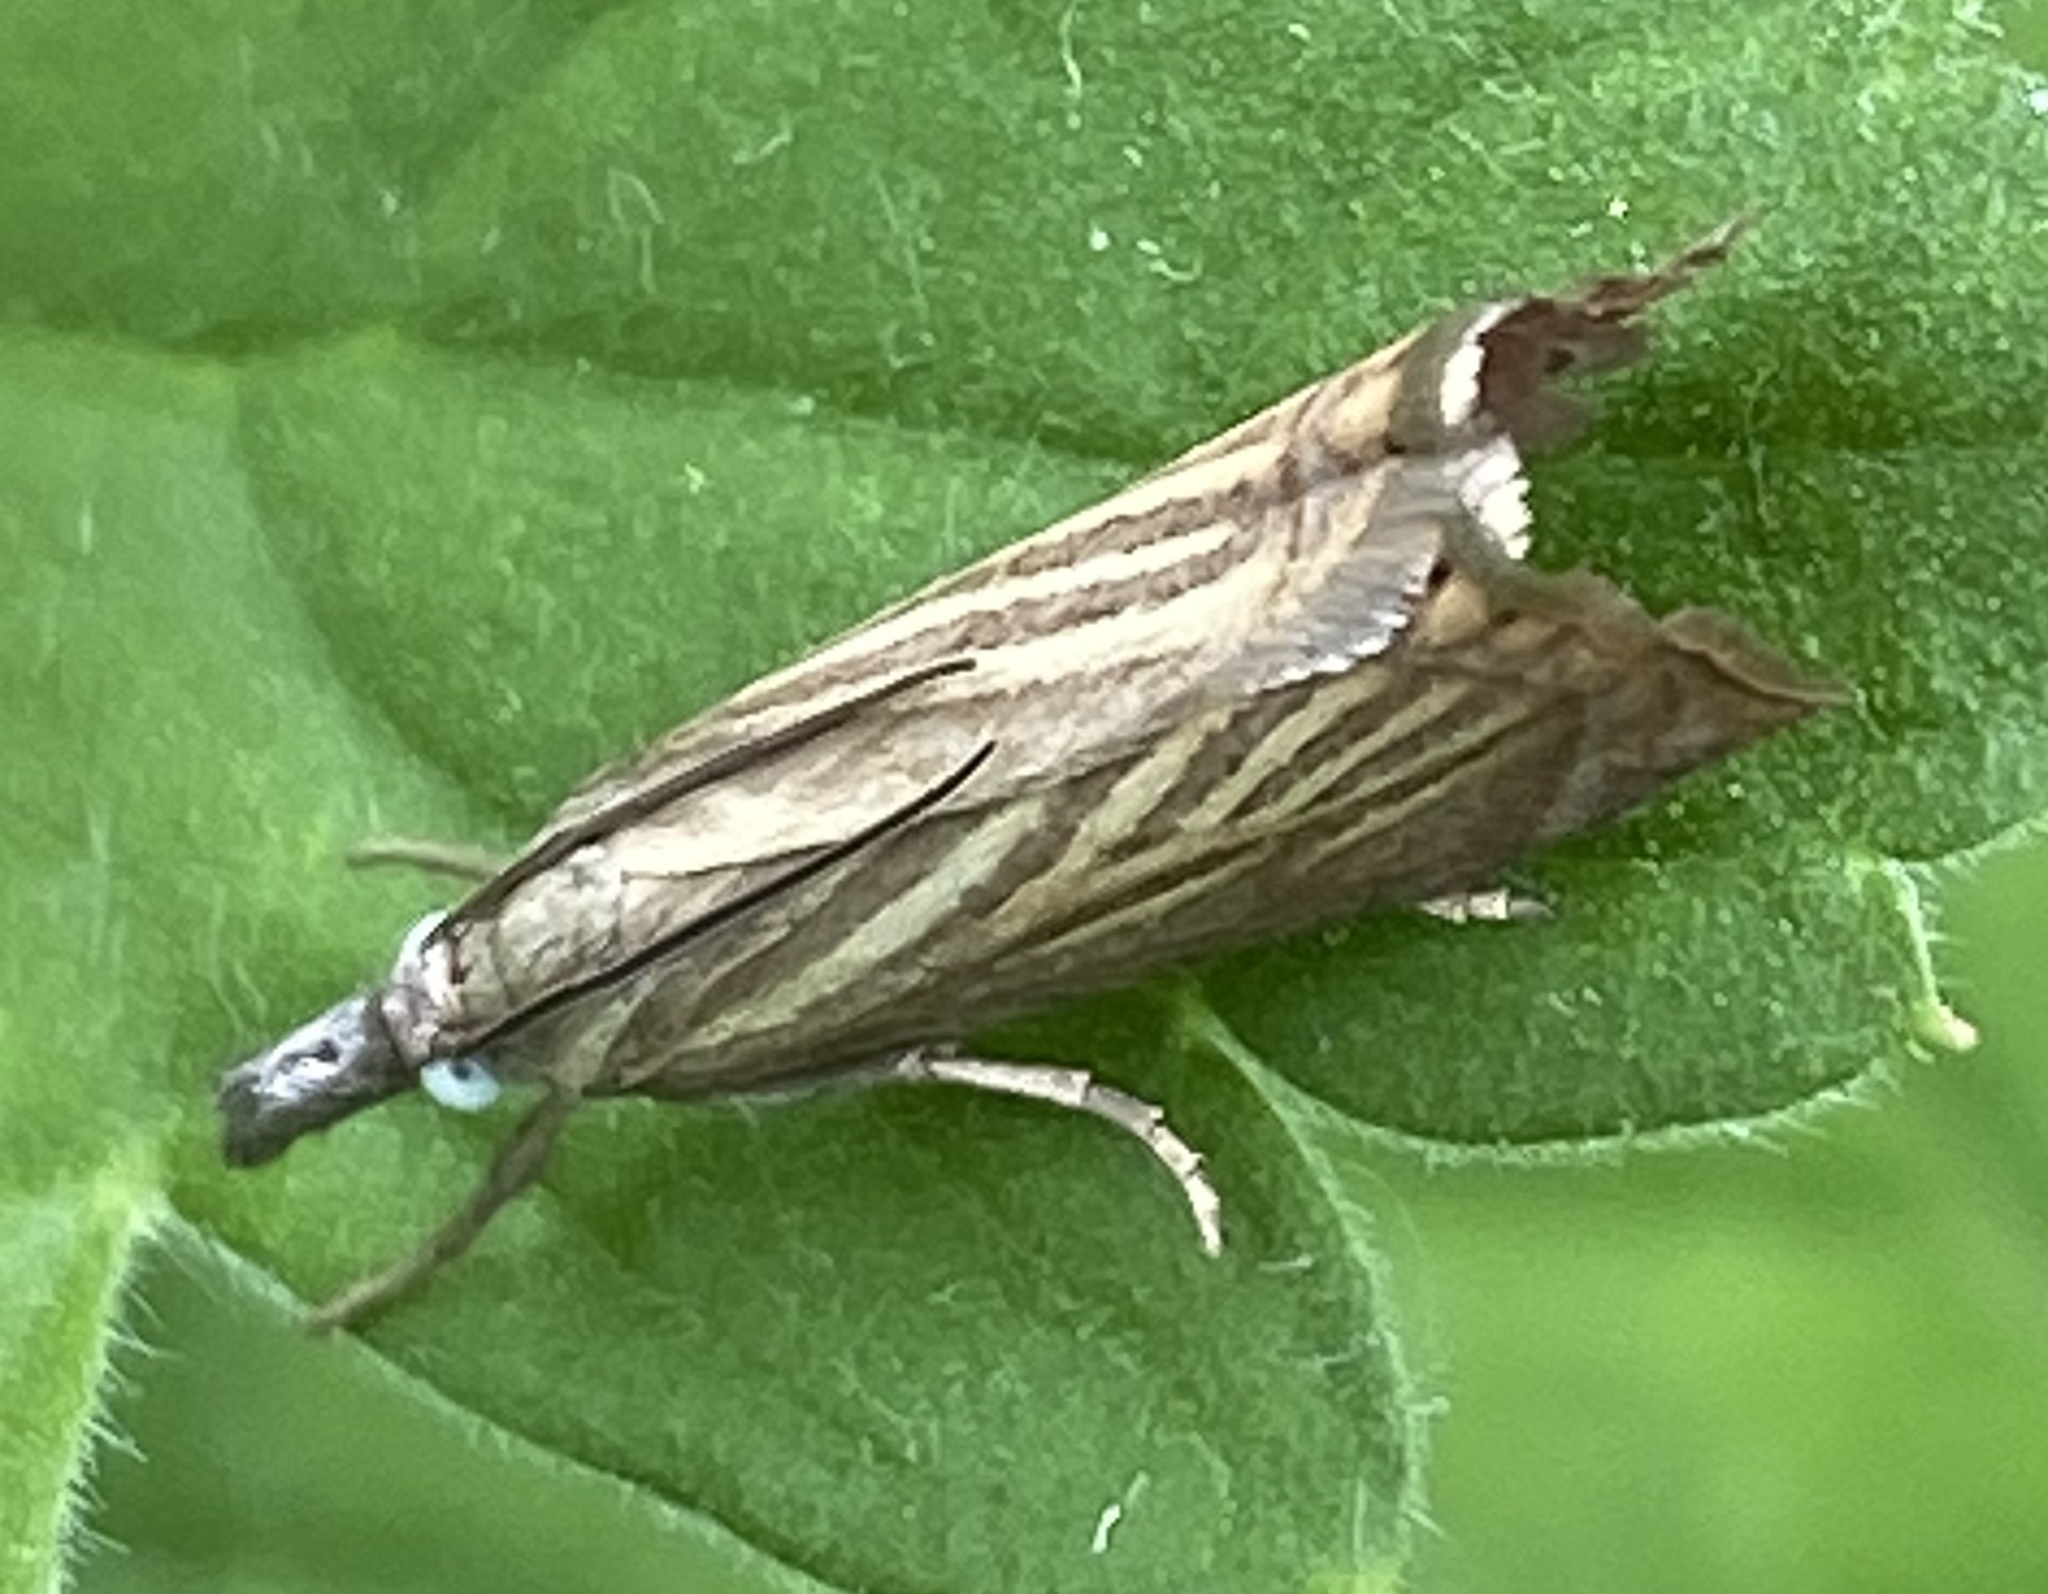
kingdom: Animalia
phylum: Arthropoda
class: Insecta
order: Lepidoptera
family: Crambidae
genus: Chrysoteuchia
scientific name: Chrysoteuchia culmella
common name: Garden grass-veneer
